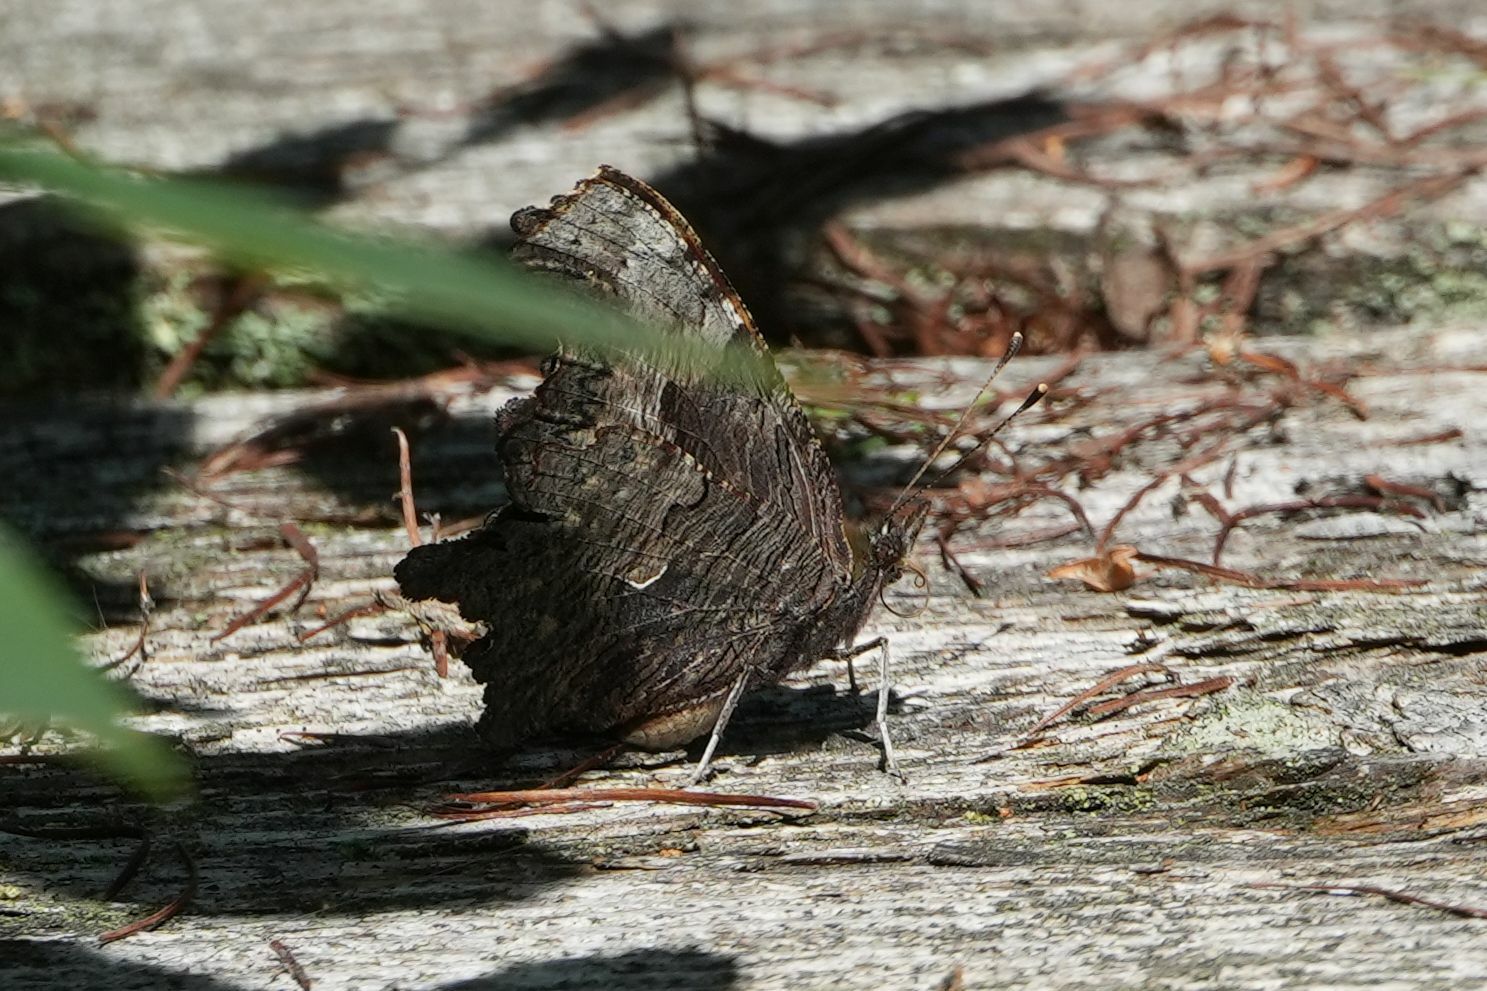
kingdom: Animalia
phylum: Arthropoda
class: Insecta
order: Lepidoptera
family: Nymphalidae
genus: Polygonia
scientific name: Polygonia progne
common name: Gray comma
